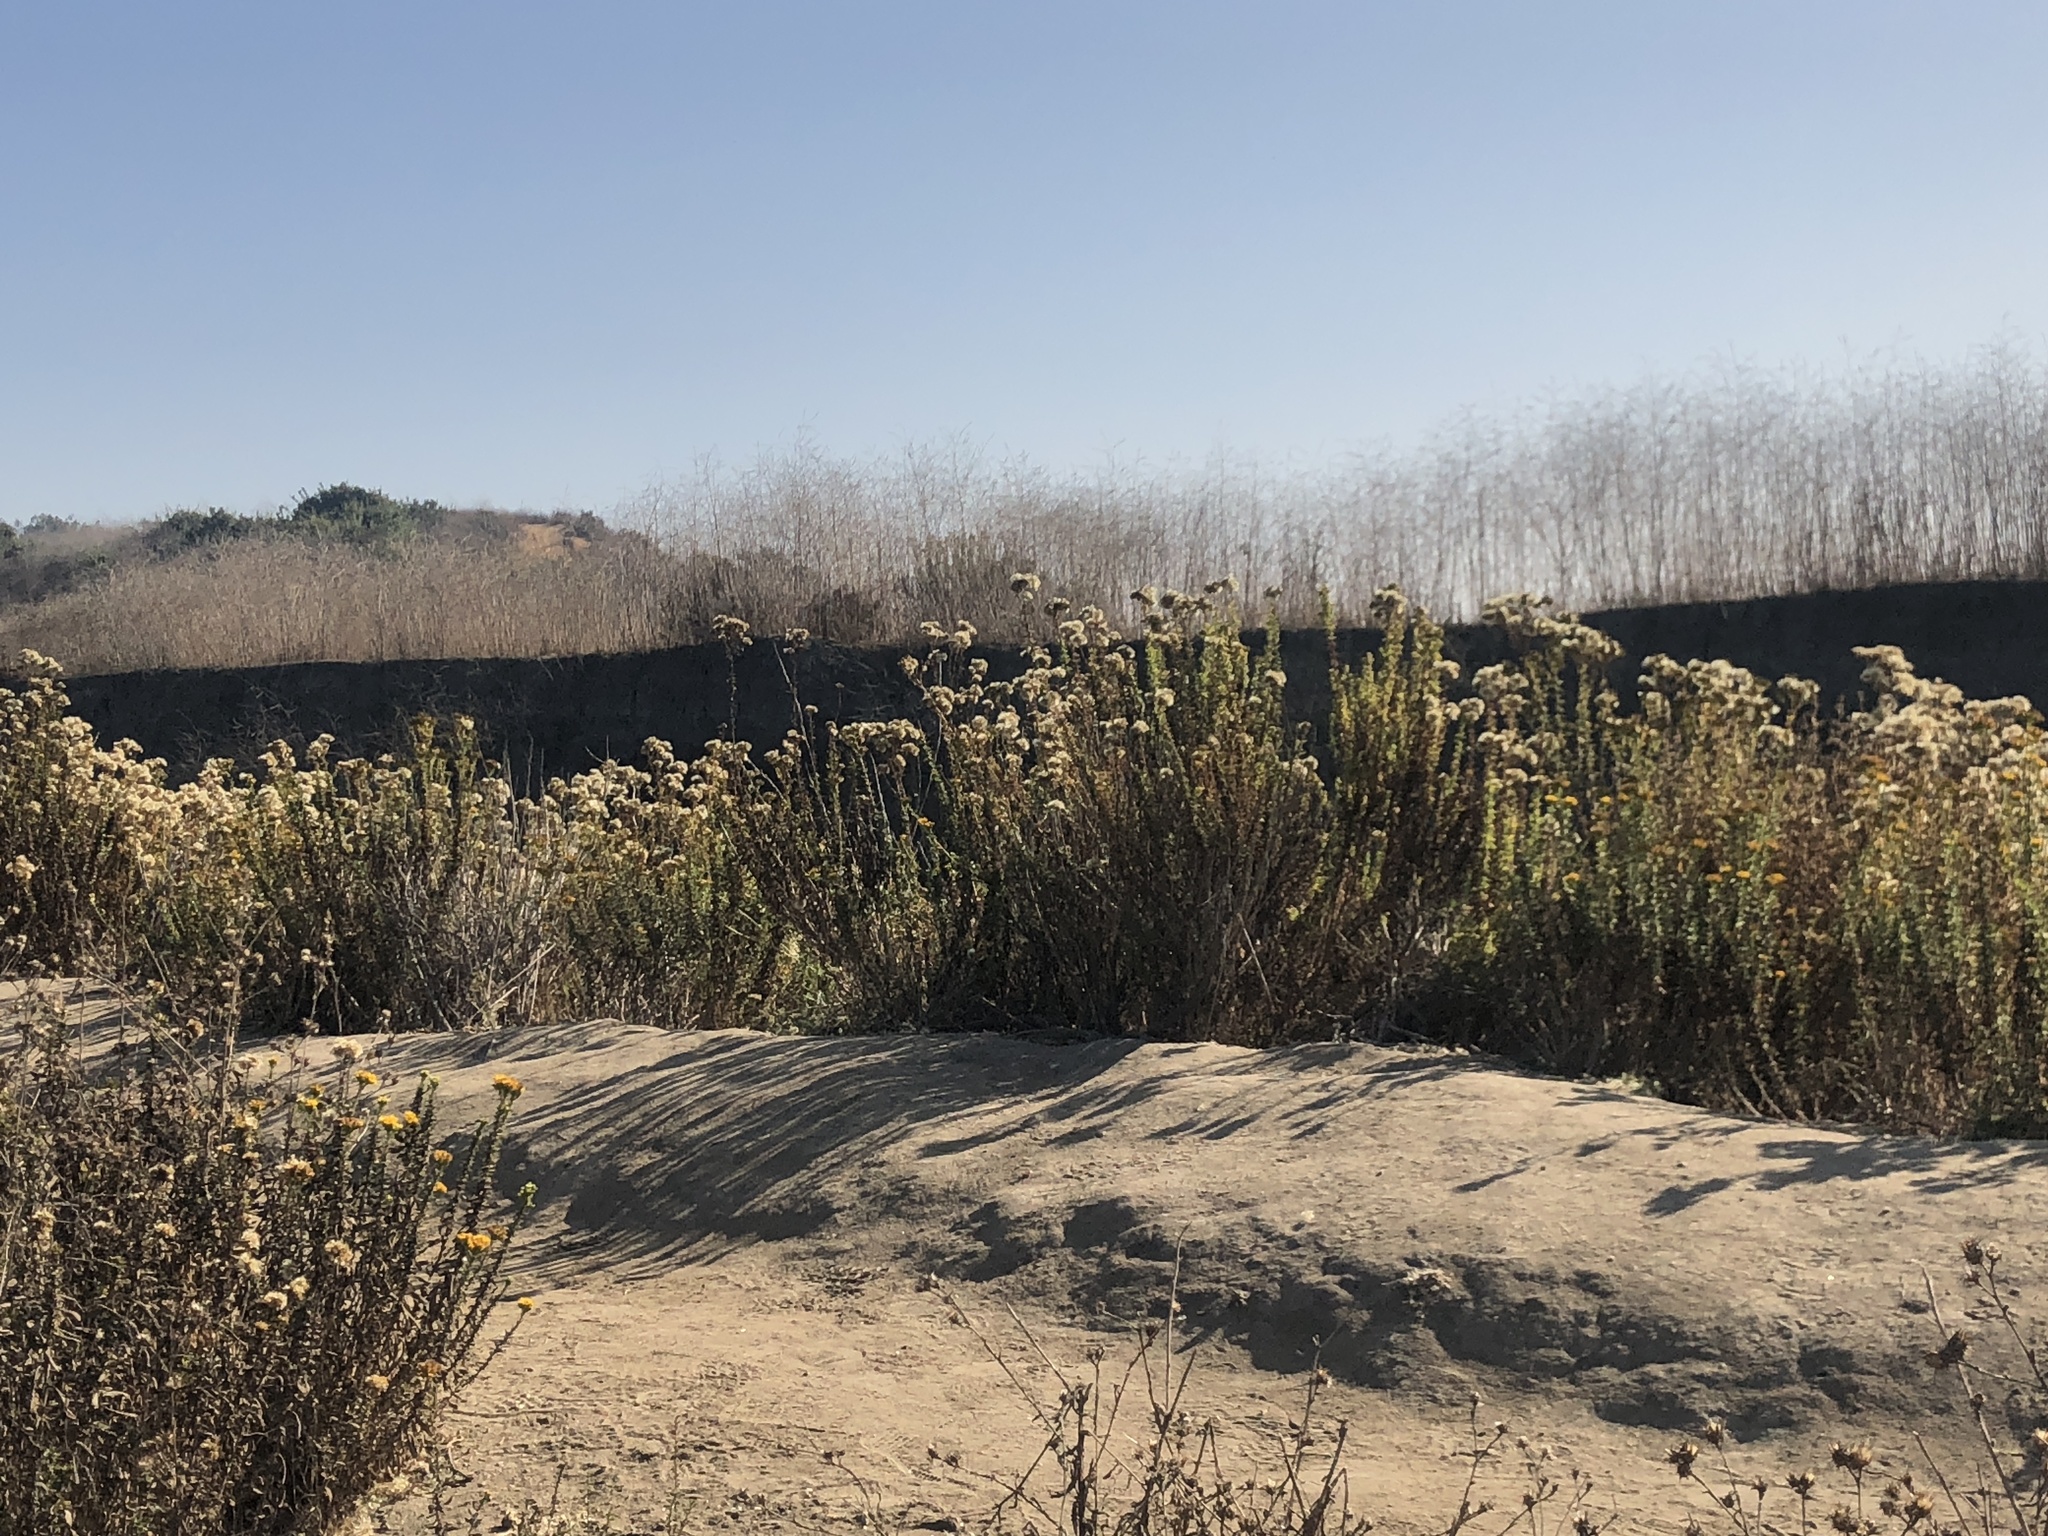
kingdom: Plantae
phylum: Tracheophyta
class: Magnoliopsida
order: Asterales
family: Asteraceae
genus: Isocoma
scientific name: Isocoma menziesii
